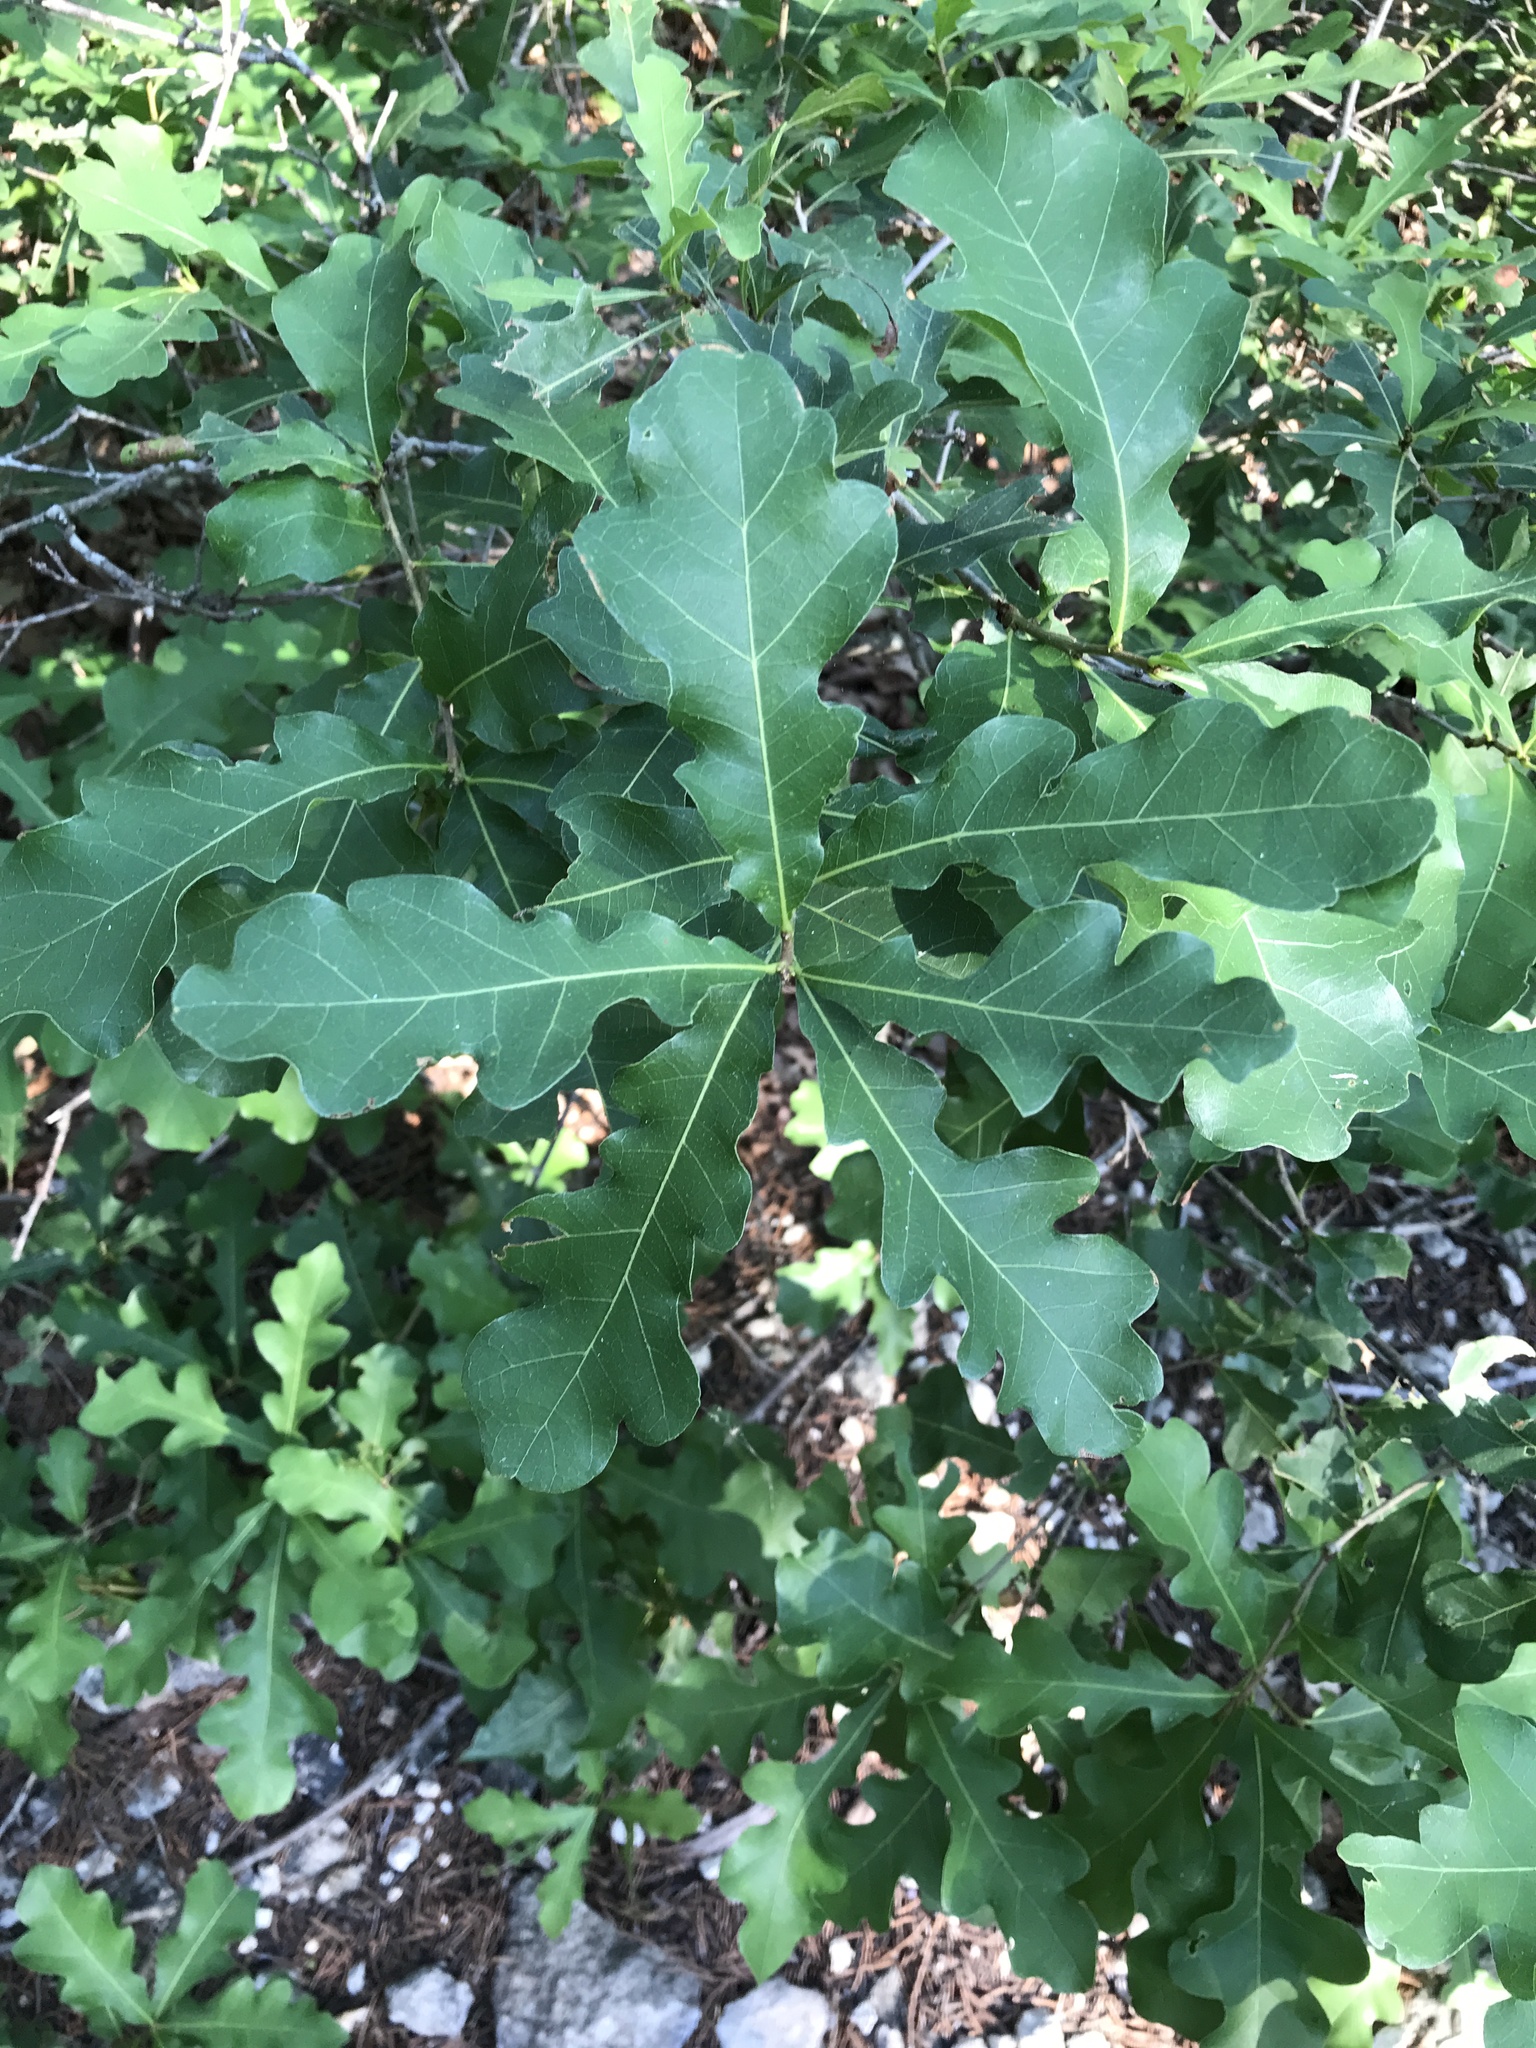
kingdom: Plantae
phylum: Tracheophyta
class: Magnoliopsida
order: Fagales
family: Fagaceae
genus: Quercus
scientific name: Quercus sinuata
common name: Durand oak
